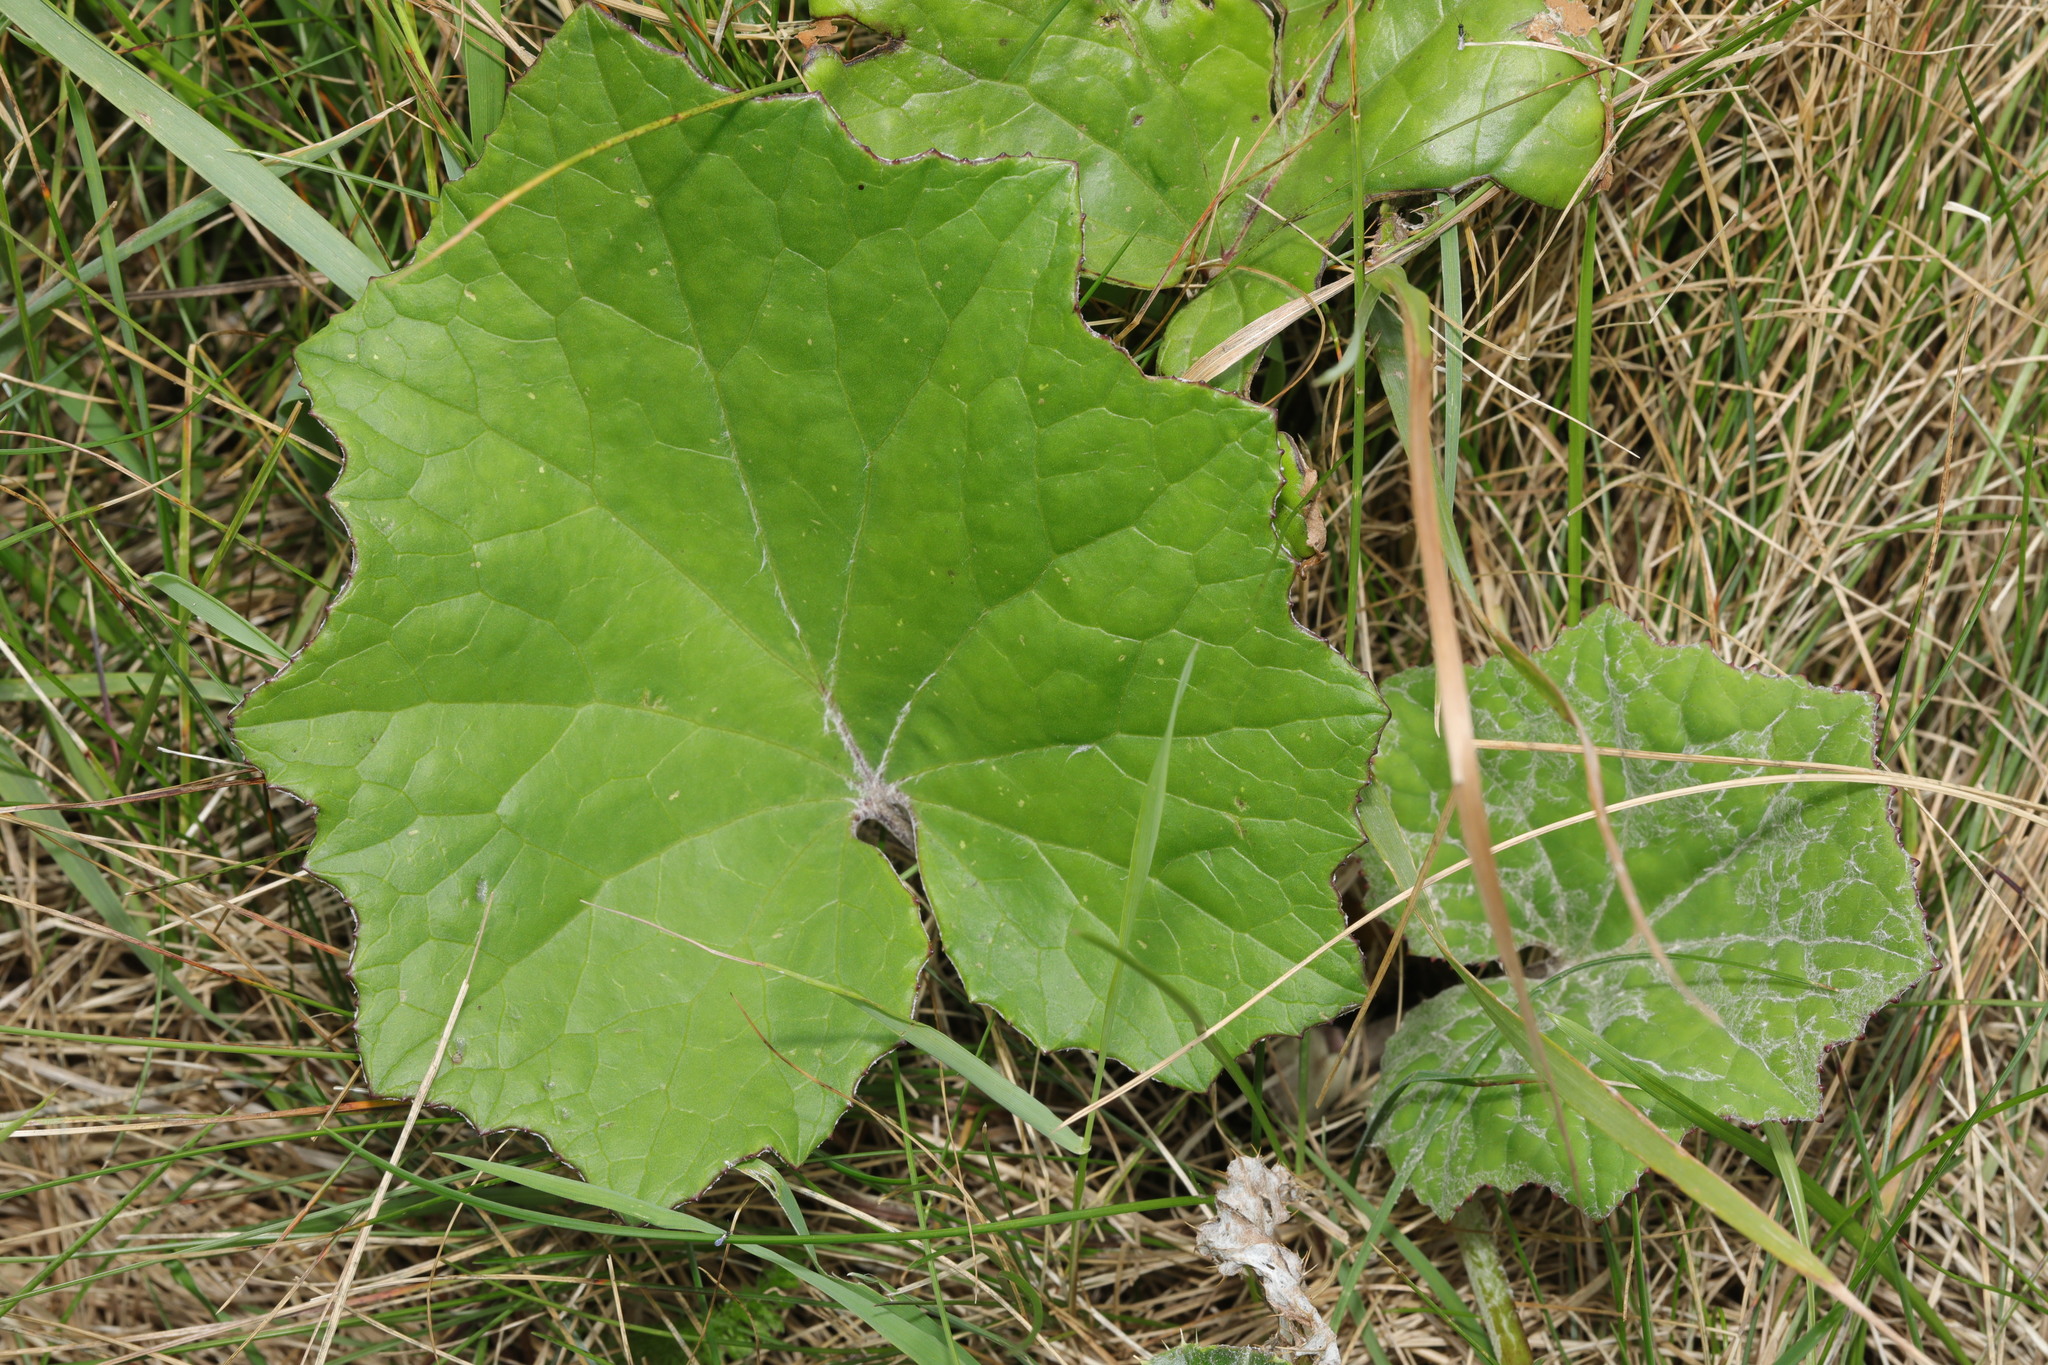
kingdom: Plantae
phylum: Tracheophyta
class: Magnoliopsida
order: Asterales
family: Asteraceae
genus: Tussilago
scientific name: Tussilago farfara
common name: Coltsfoot
